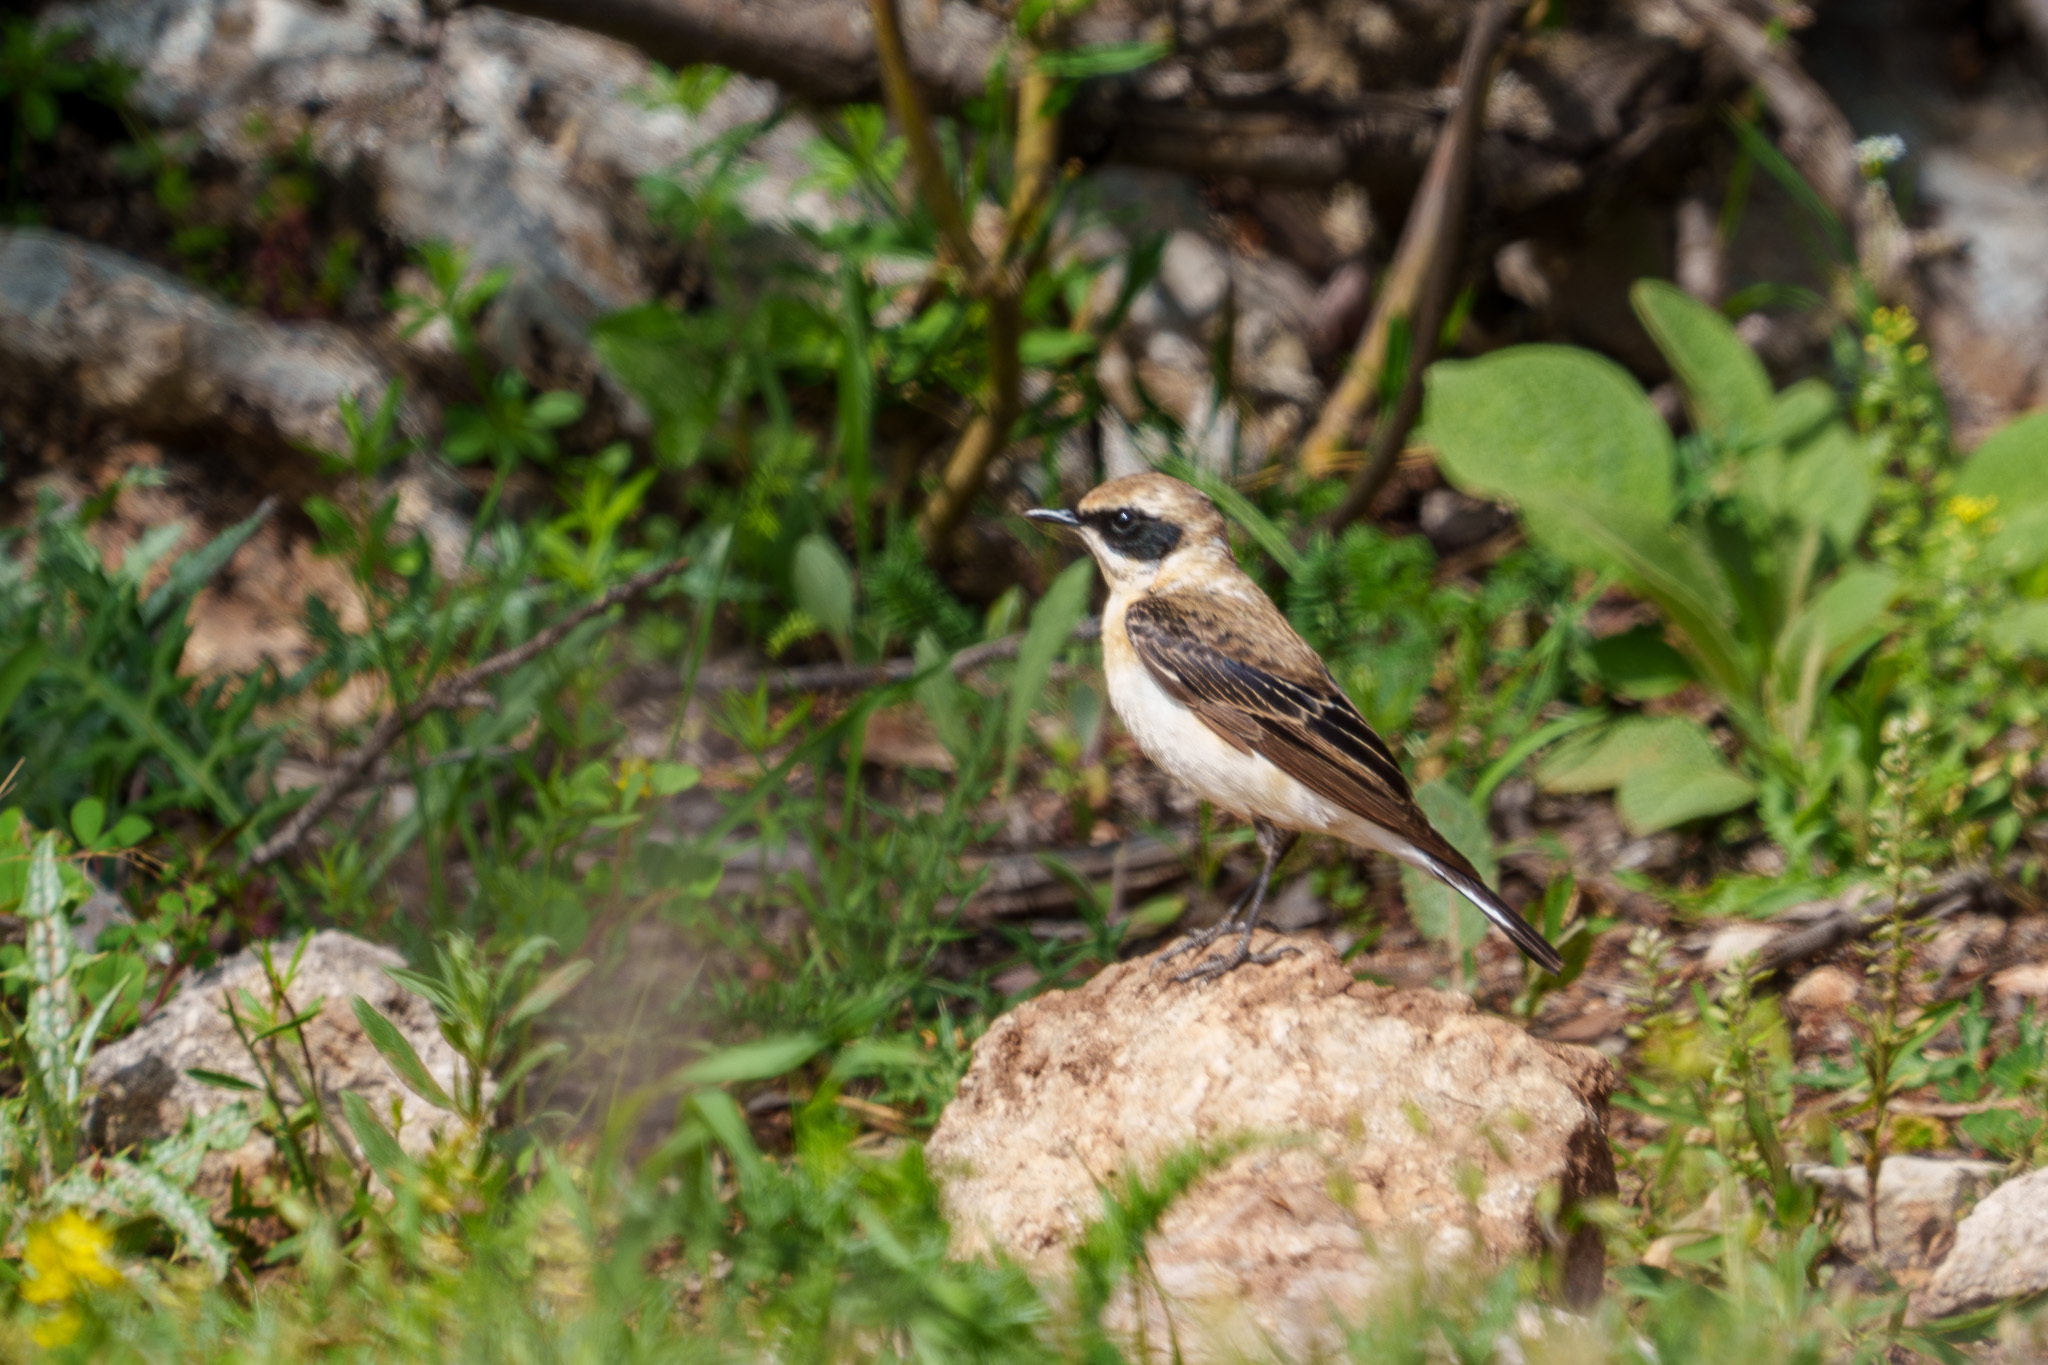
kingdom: Animalia
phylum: Chordata
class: Aves
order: Passeriformes
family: Muscicapidae
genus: Oenanthe
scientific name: Oenanthe hispanica
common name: Black-eared wheatear
